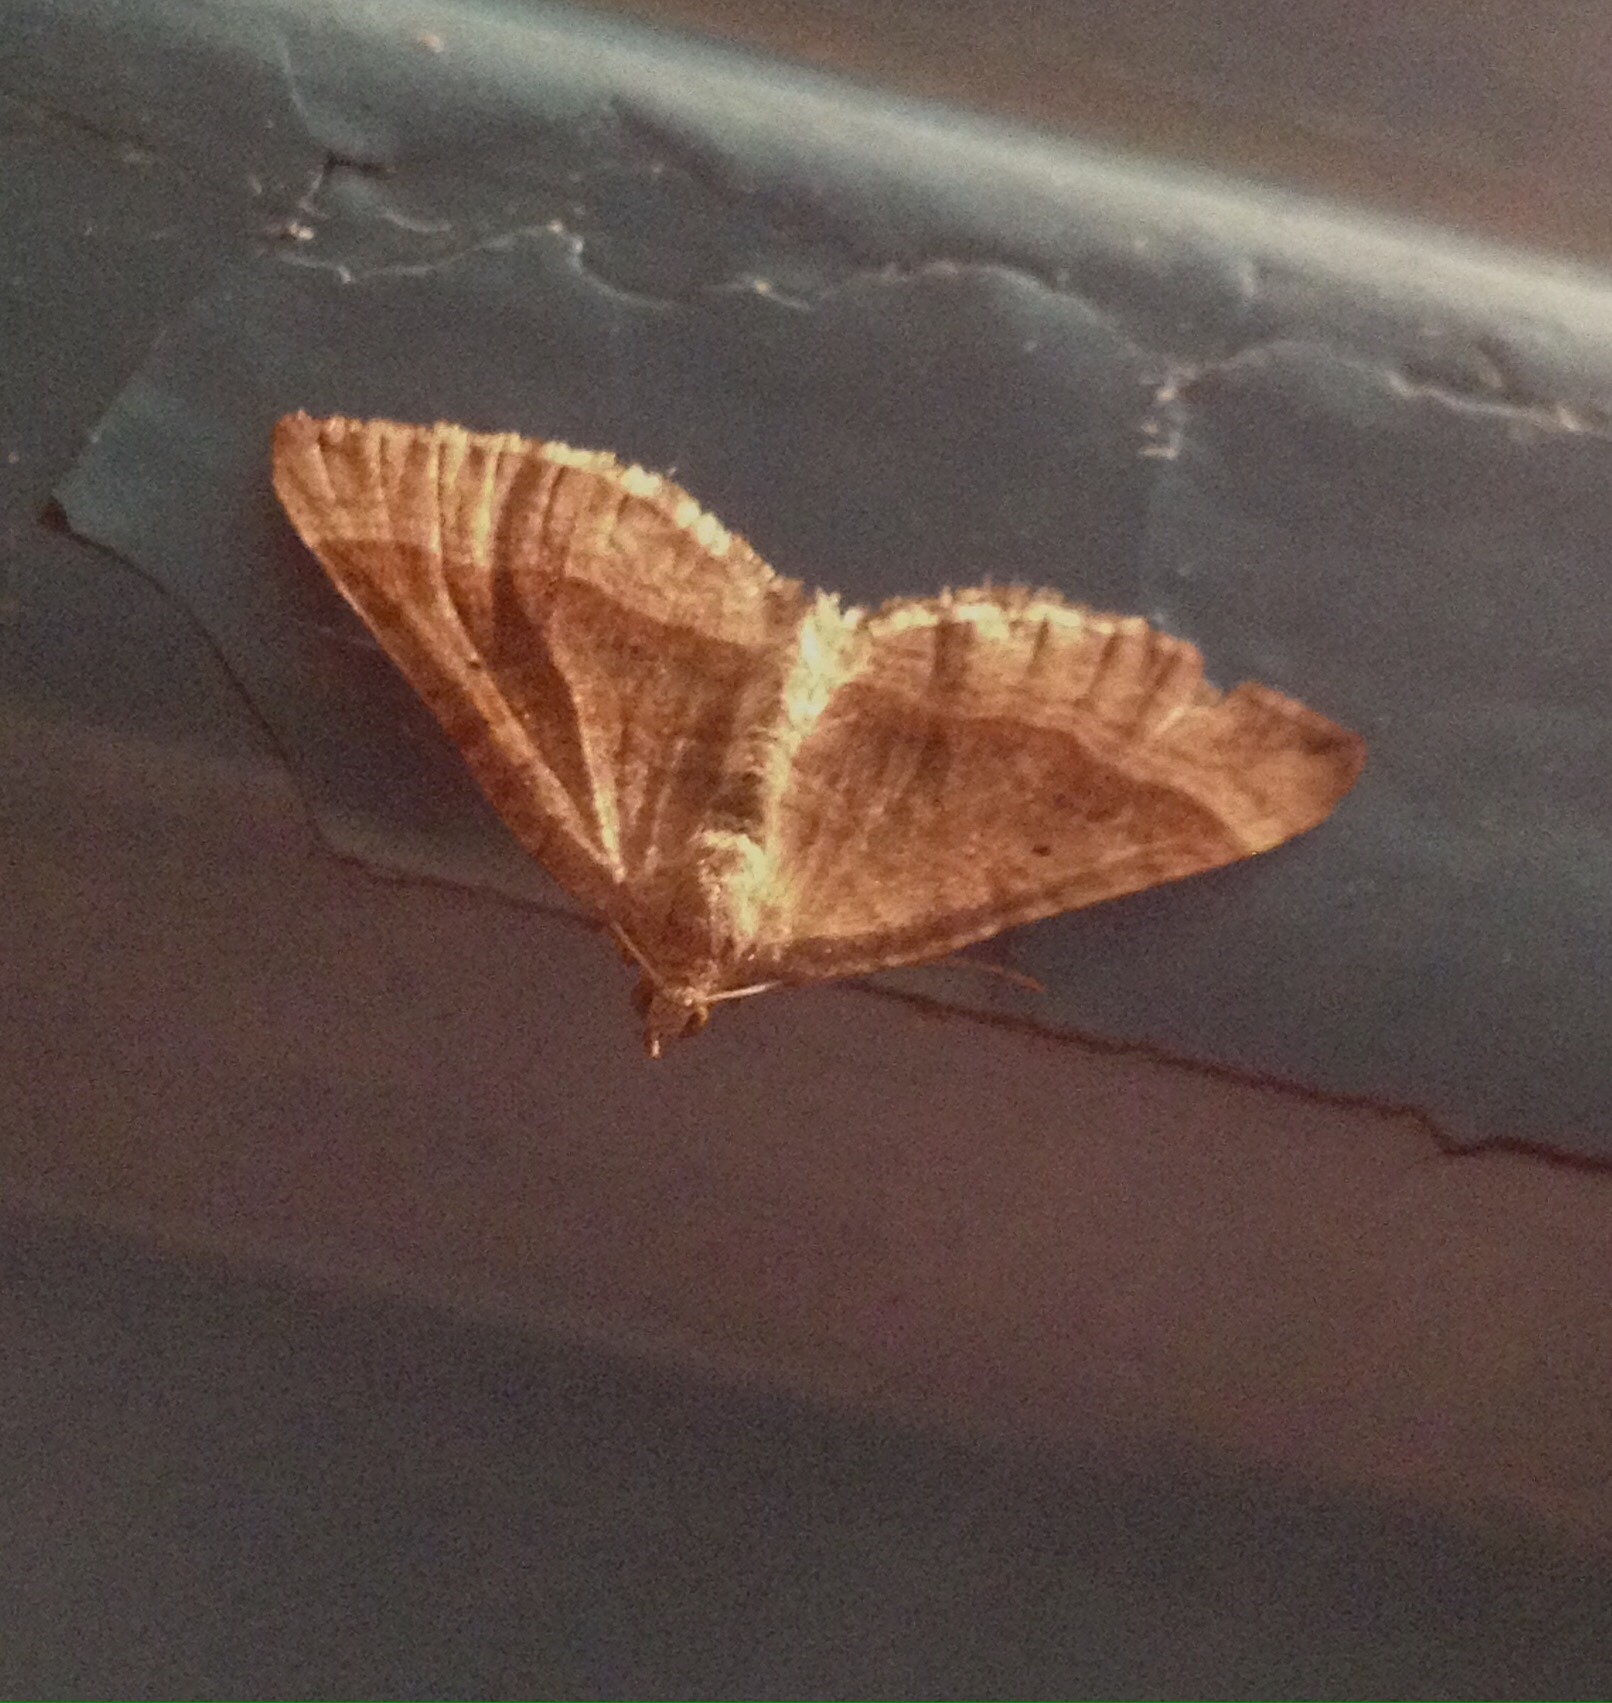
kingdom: Animalia
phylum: Arthropoda
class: Insecta
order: Lepidoptera
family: Geometridae
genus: Scotopteryx
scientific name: Scotopteryx chenopodiata
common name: Shaded broad-bar
